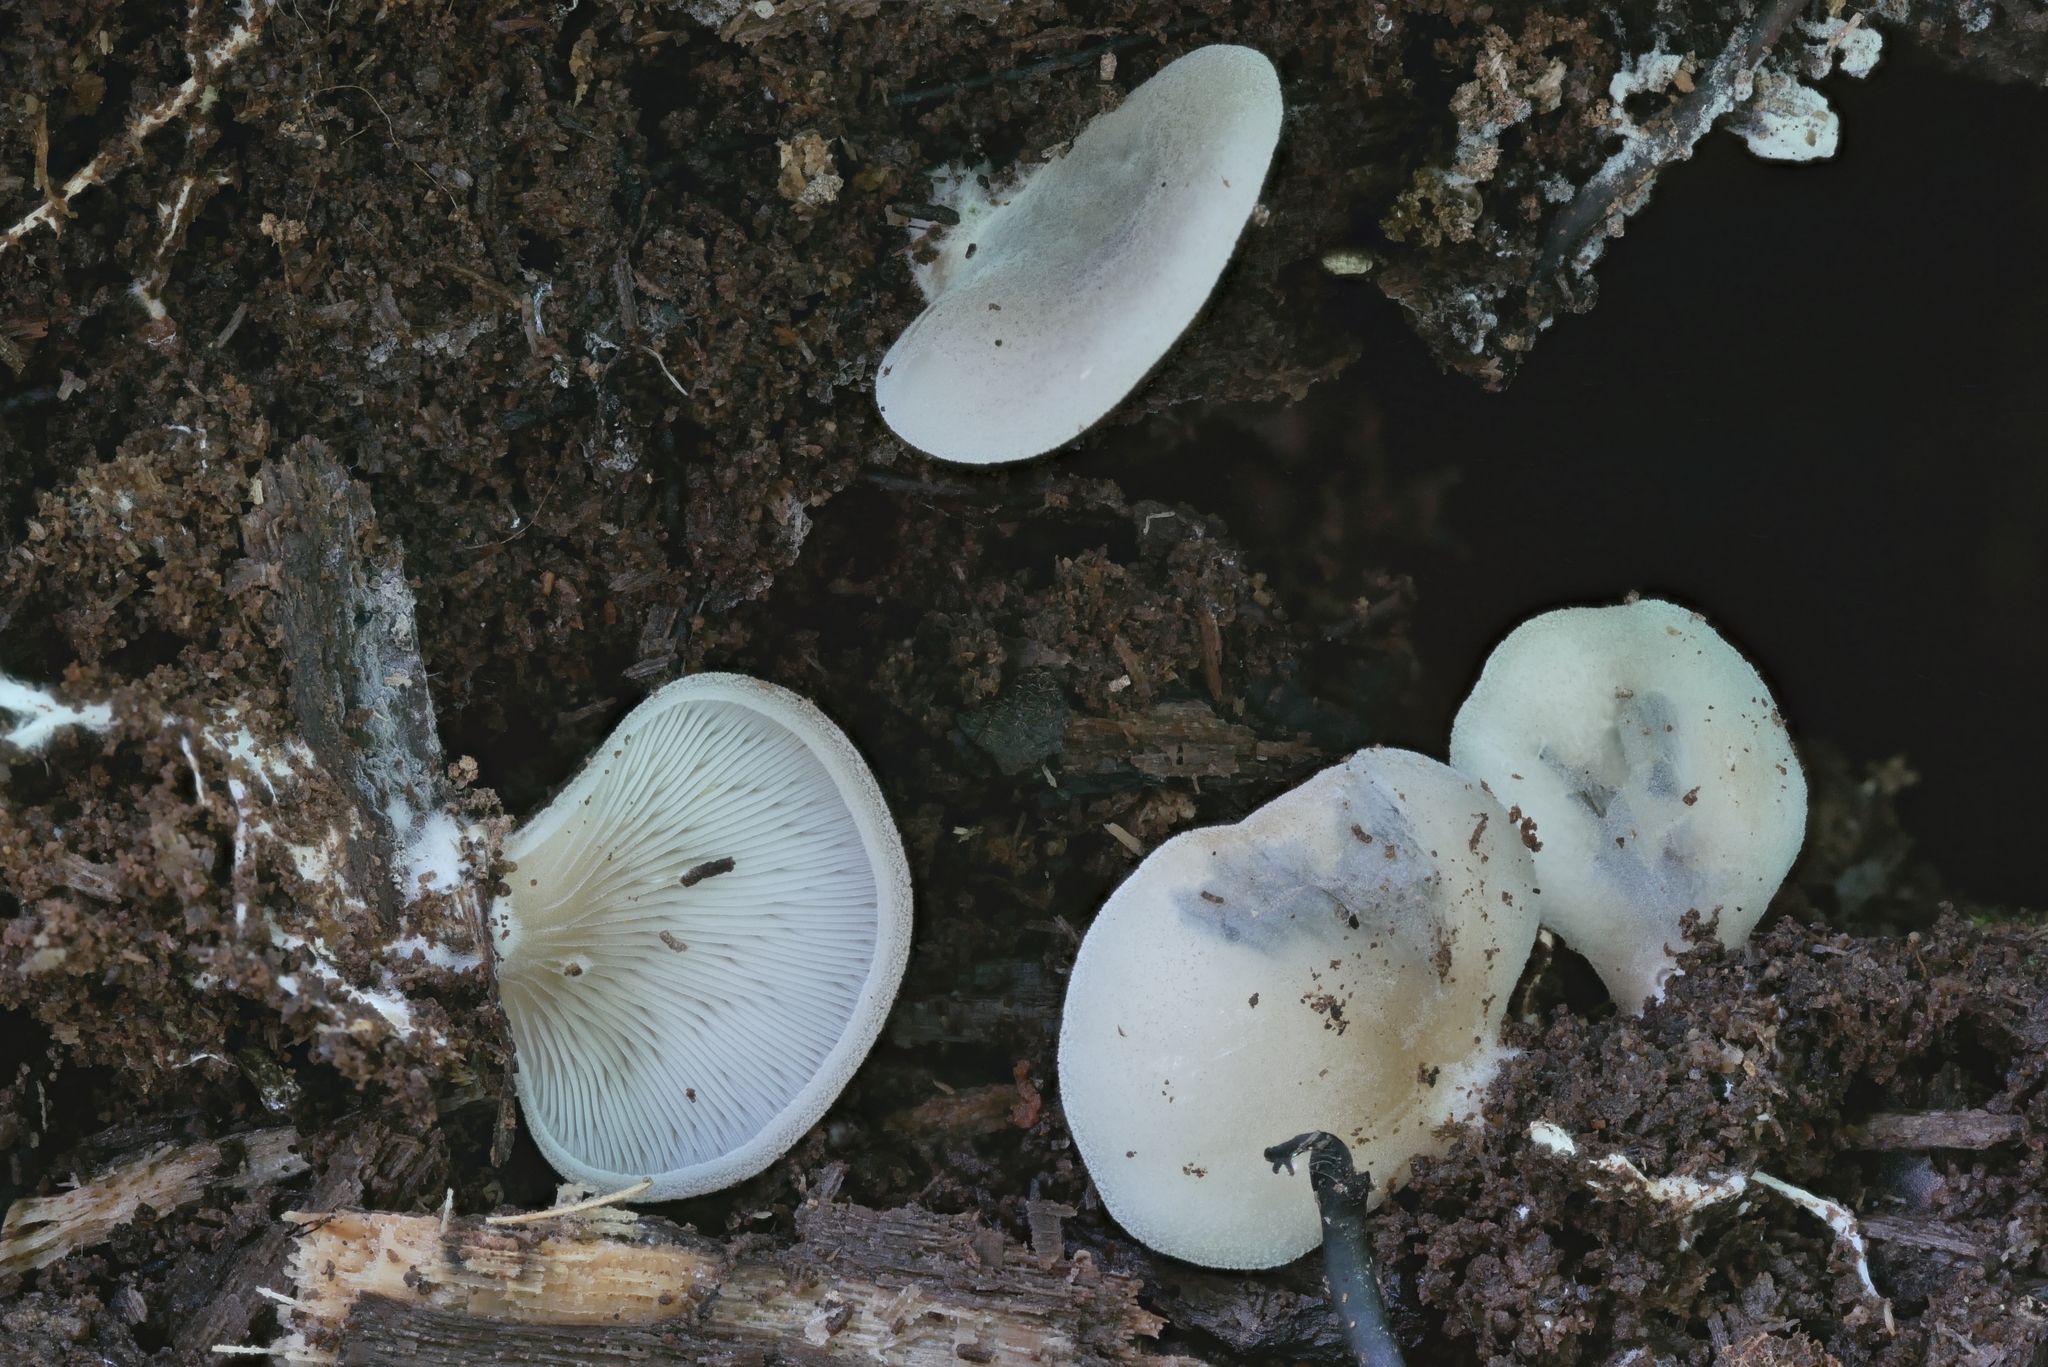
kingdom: Fungi
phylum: Basidiomycota
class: Agaricomycetes
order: Agaricales
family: Pleurotaceae
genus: Hohenbuehelia
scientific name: Hohenbuehelia angustata
